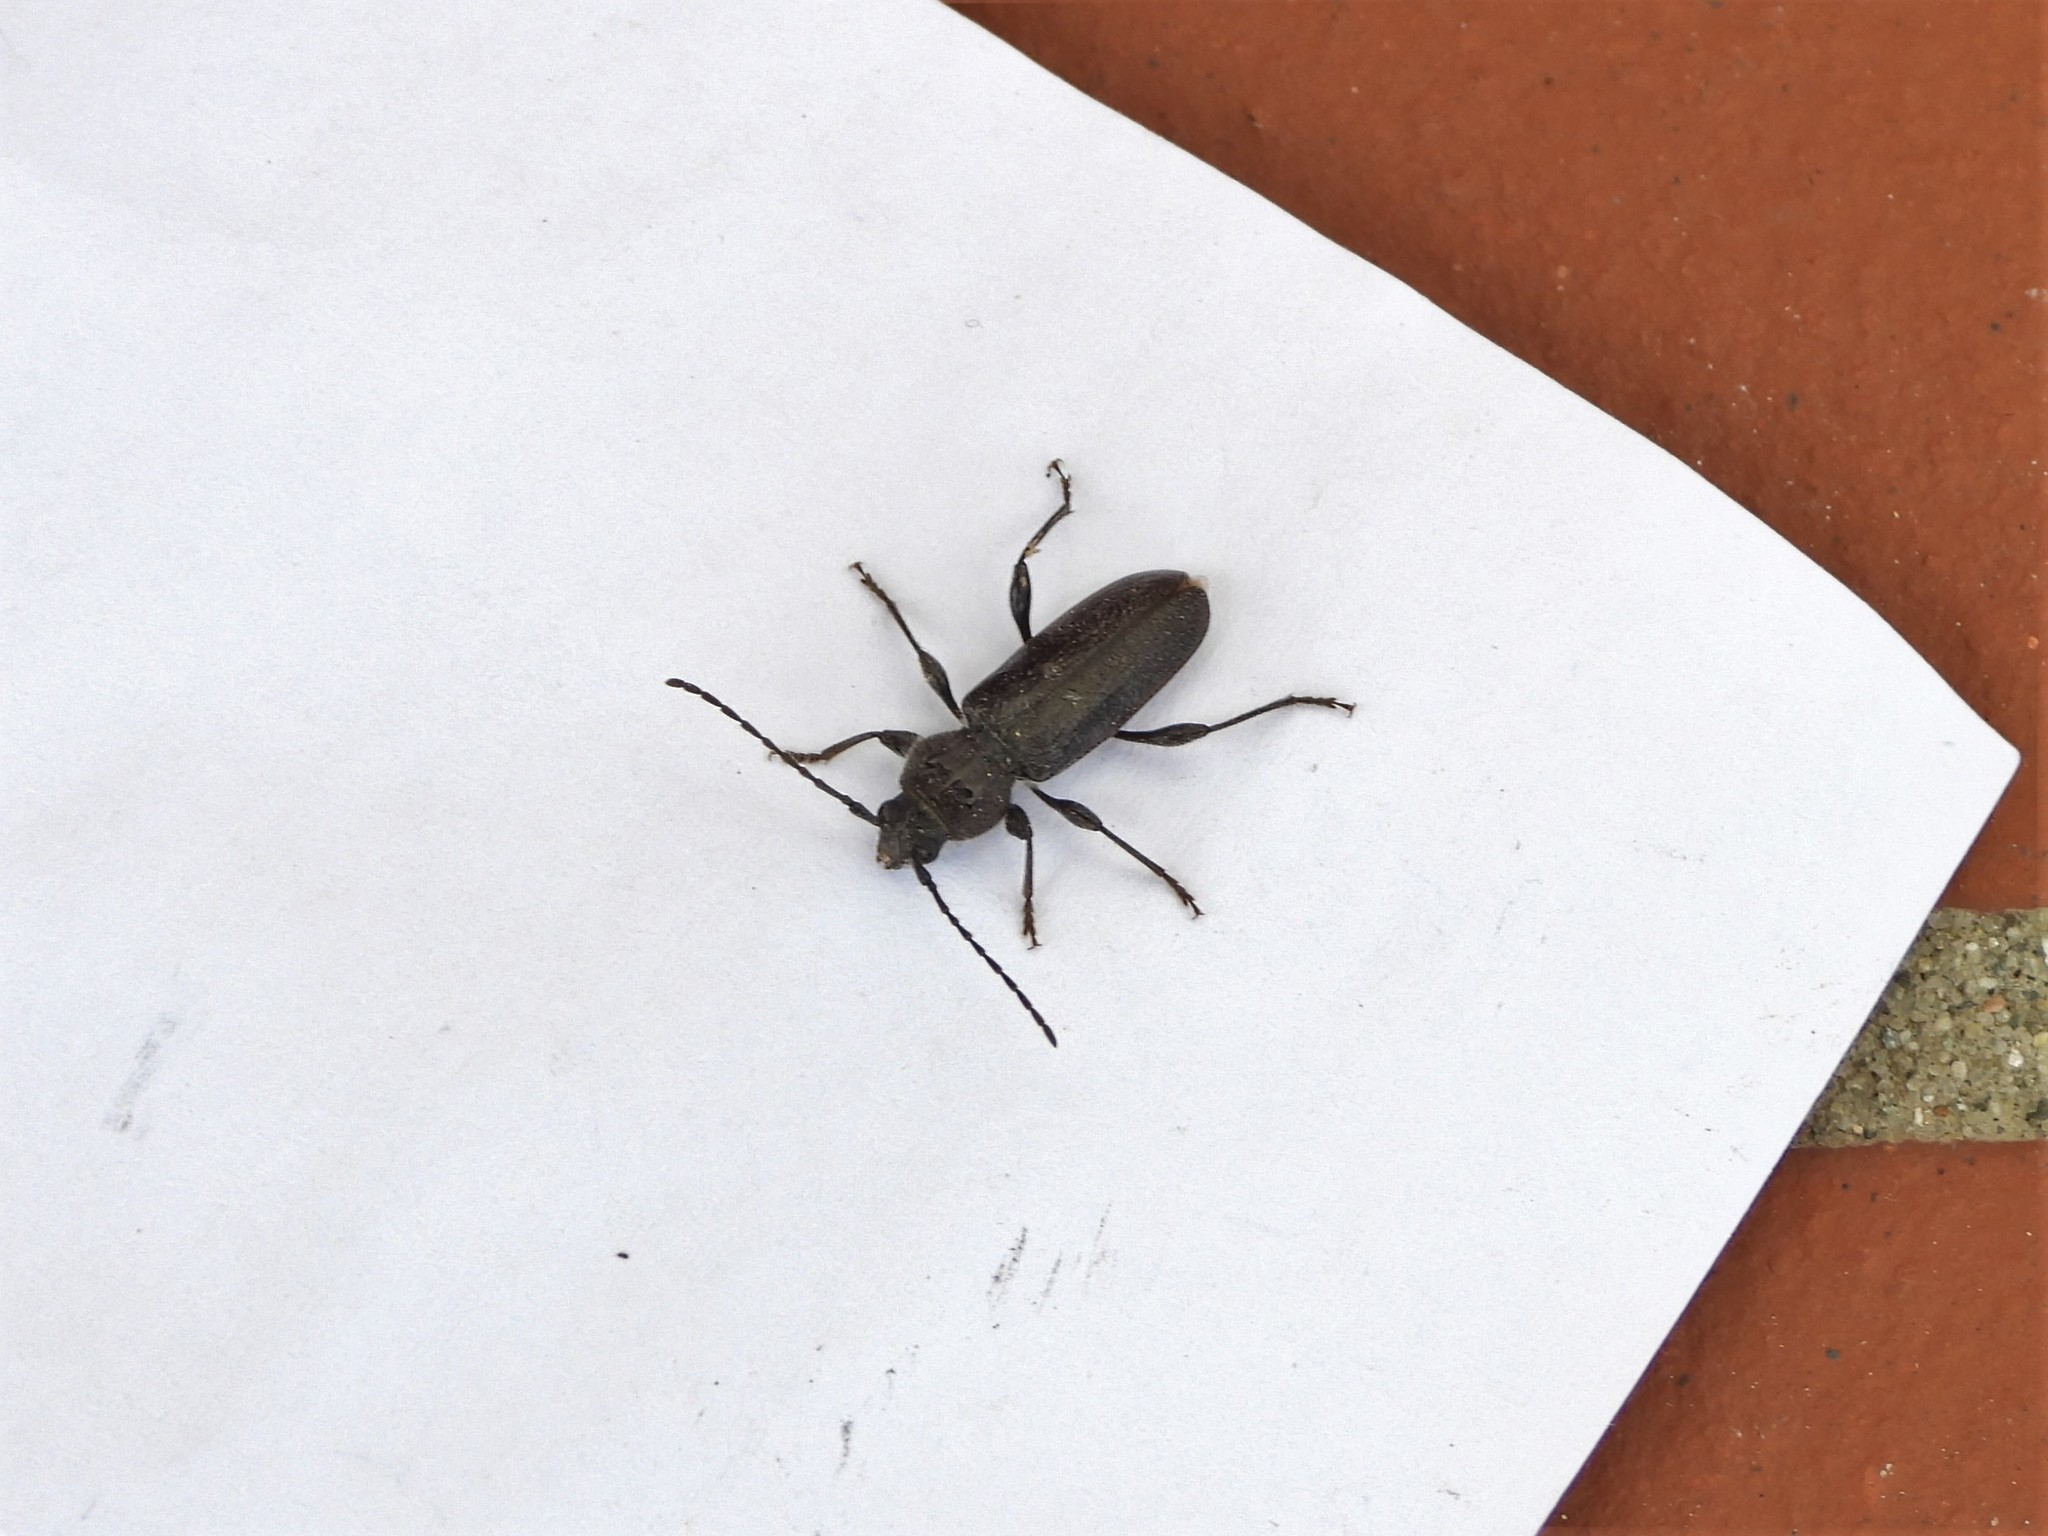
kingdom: Animalia
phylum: Arthropoda
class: Insecta
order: Coleoptera
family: Cerambycidae
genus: Hylotrupes
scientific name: Hylotrupes bajulus
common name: Old house borer
